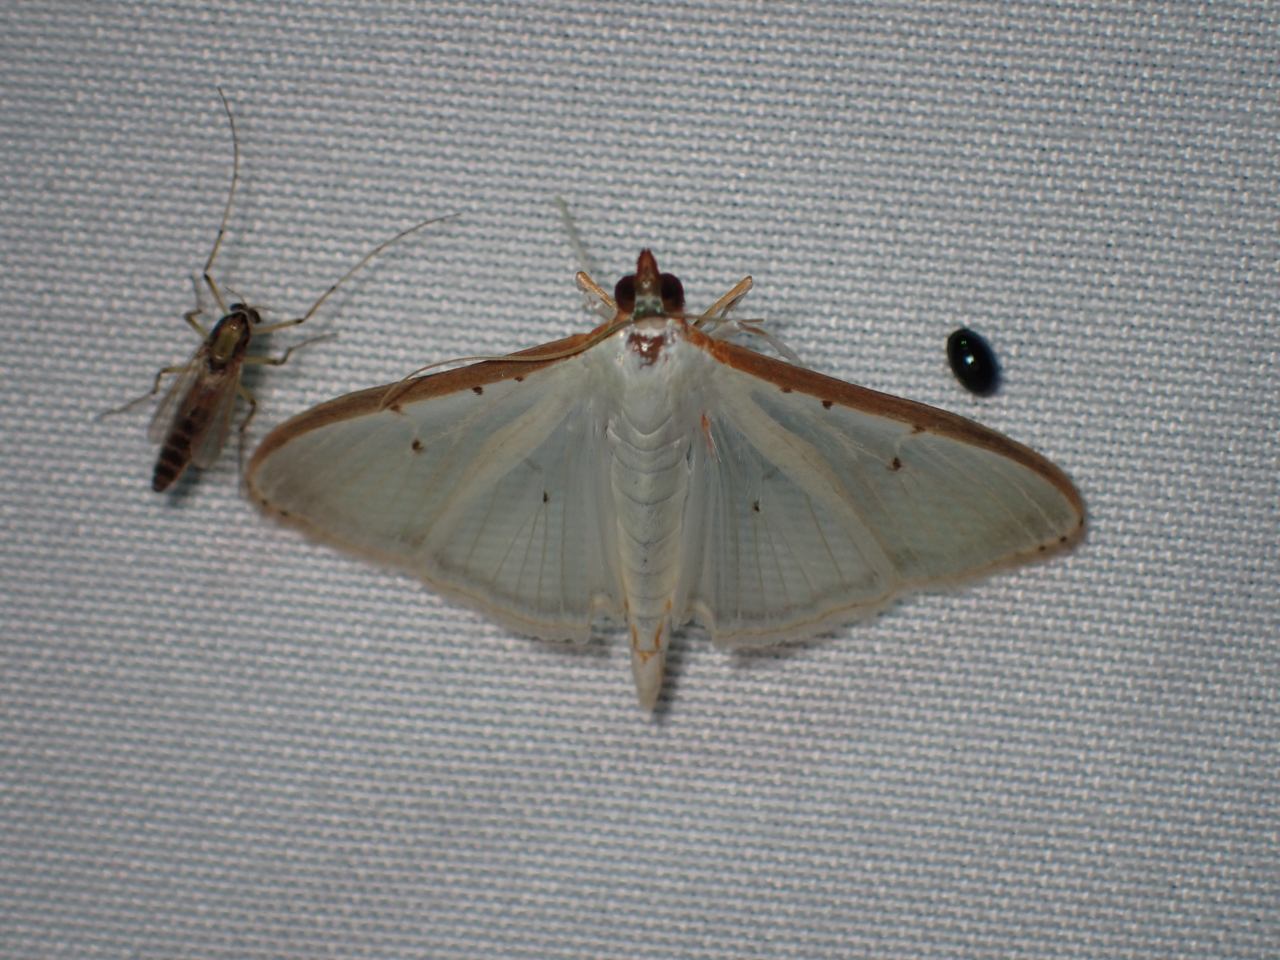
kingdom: Animalia
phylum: Arthropoda
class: Insecta
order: Lepidoptera
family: Crambidae
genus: Palpita
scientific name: Palpita quadristigmalis
